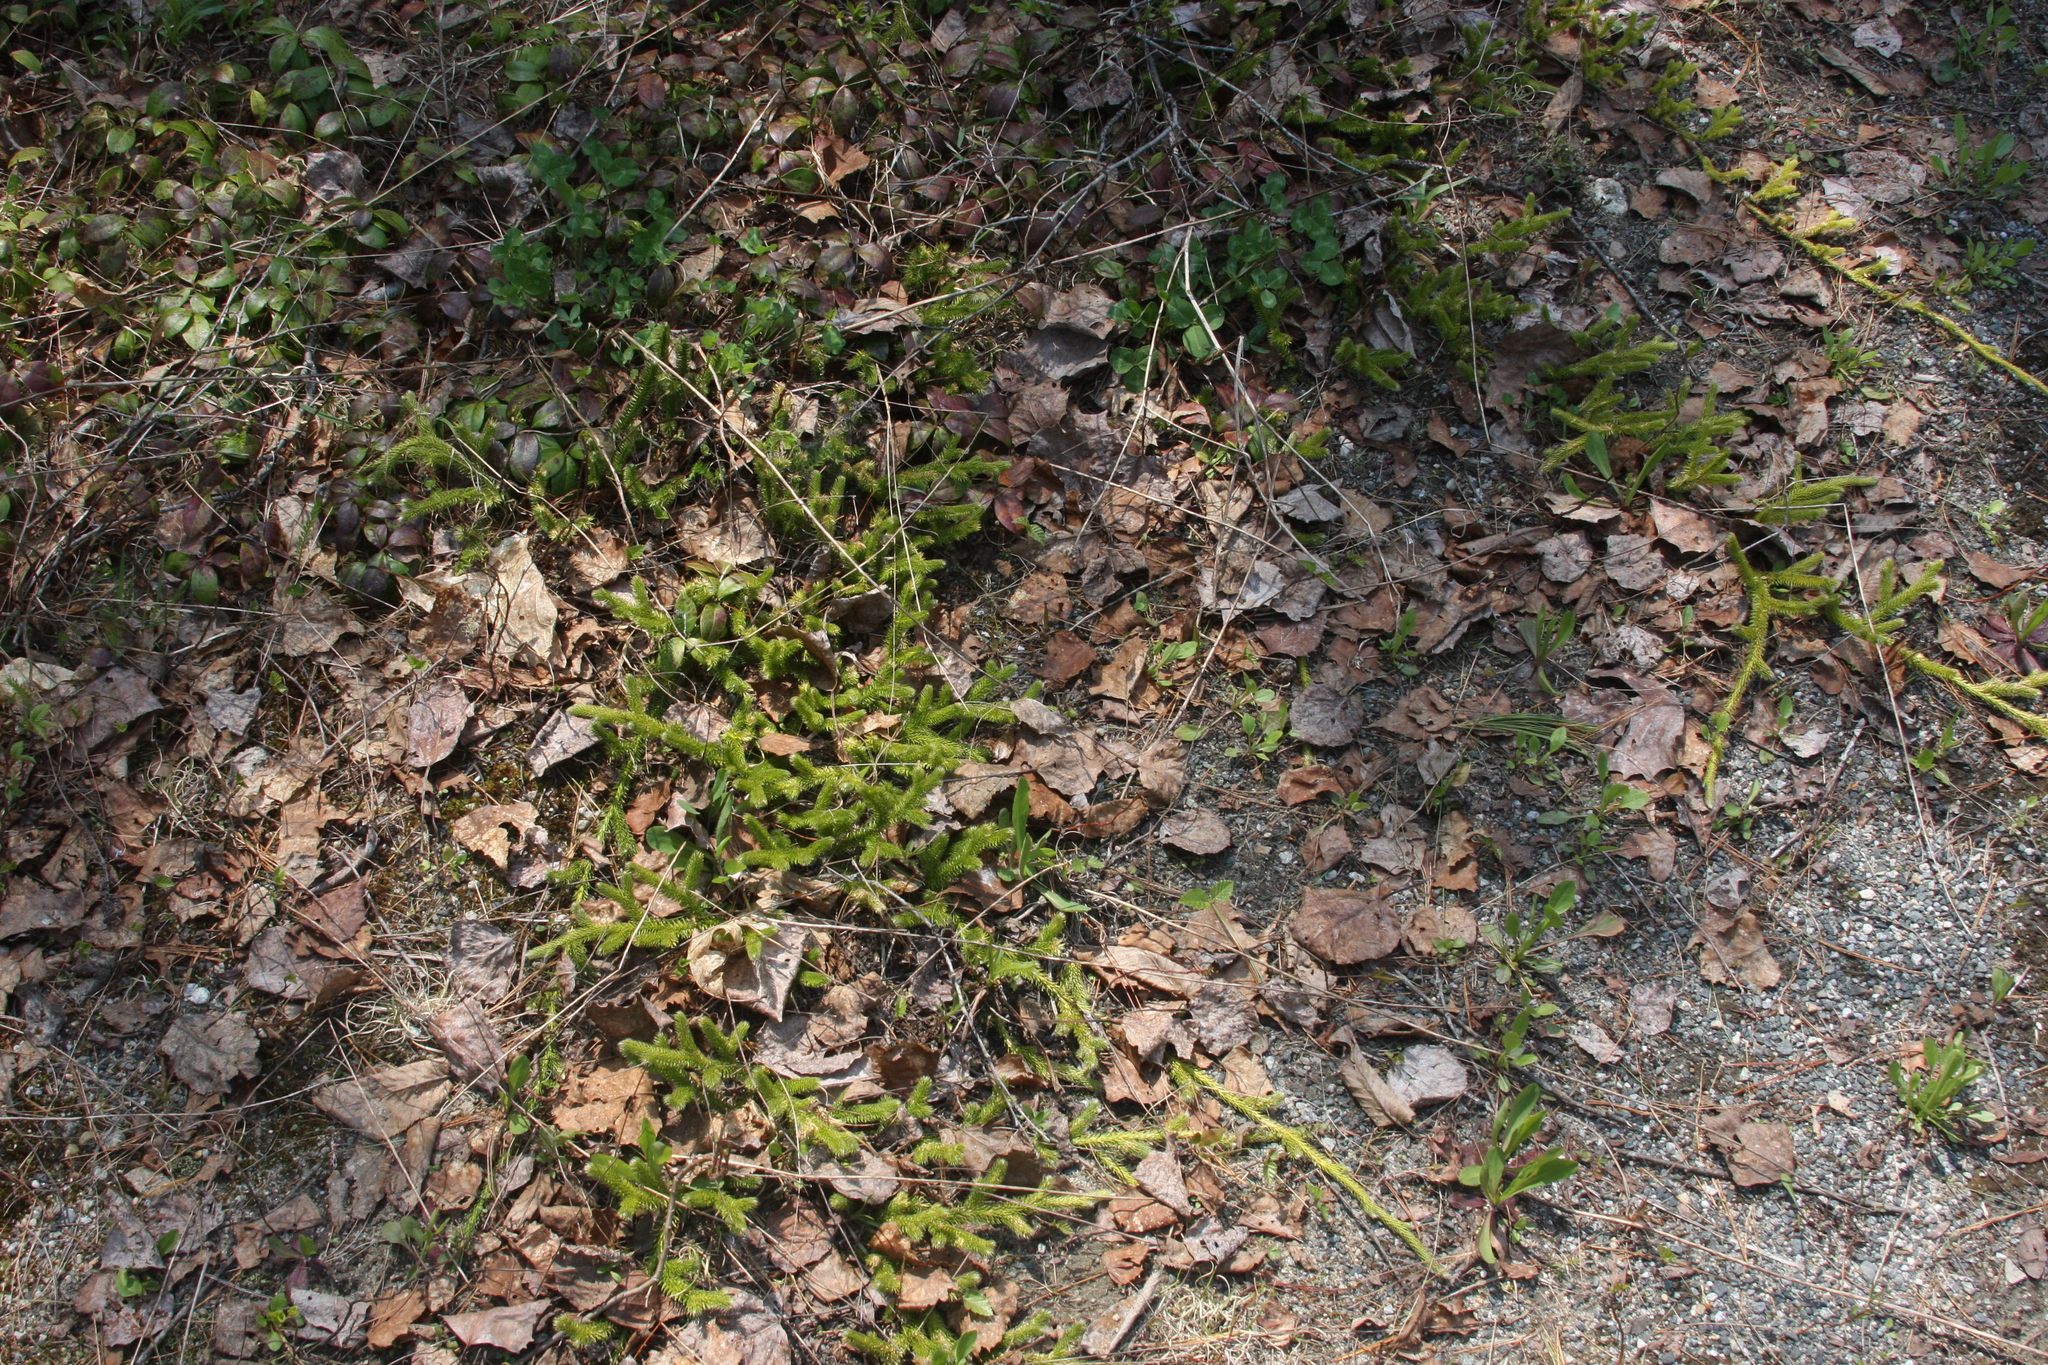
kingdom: Plantae
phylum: Tracheophyta
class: Lycopodiopsida
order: Lycopodiales
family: Lycopodiaceae
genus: Lycopodium
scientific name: Lycopodium clavatum
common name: Stag's-horn clubmoss
